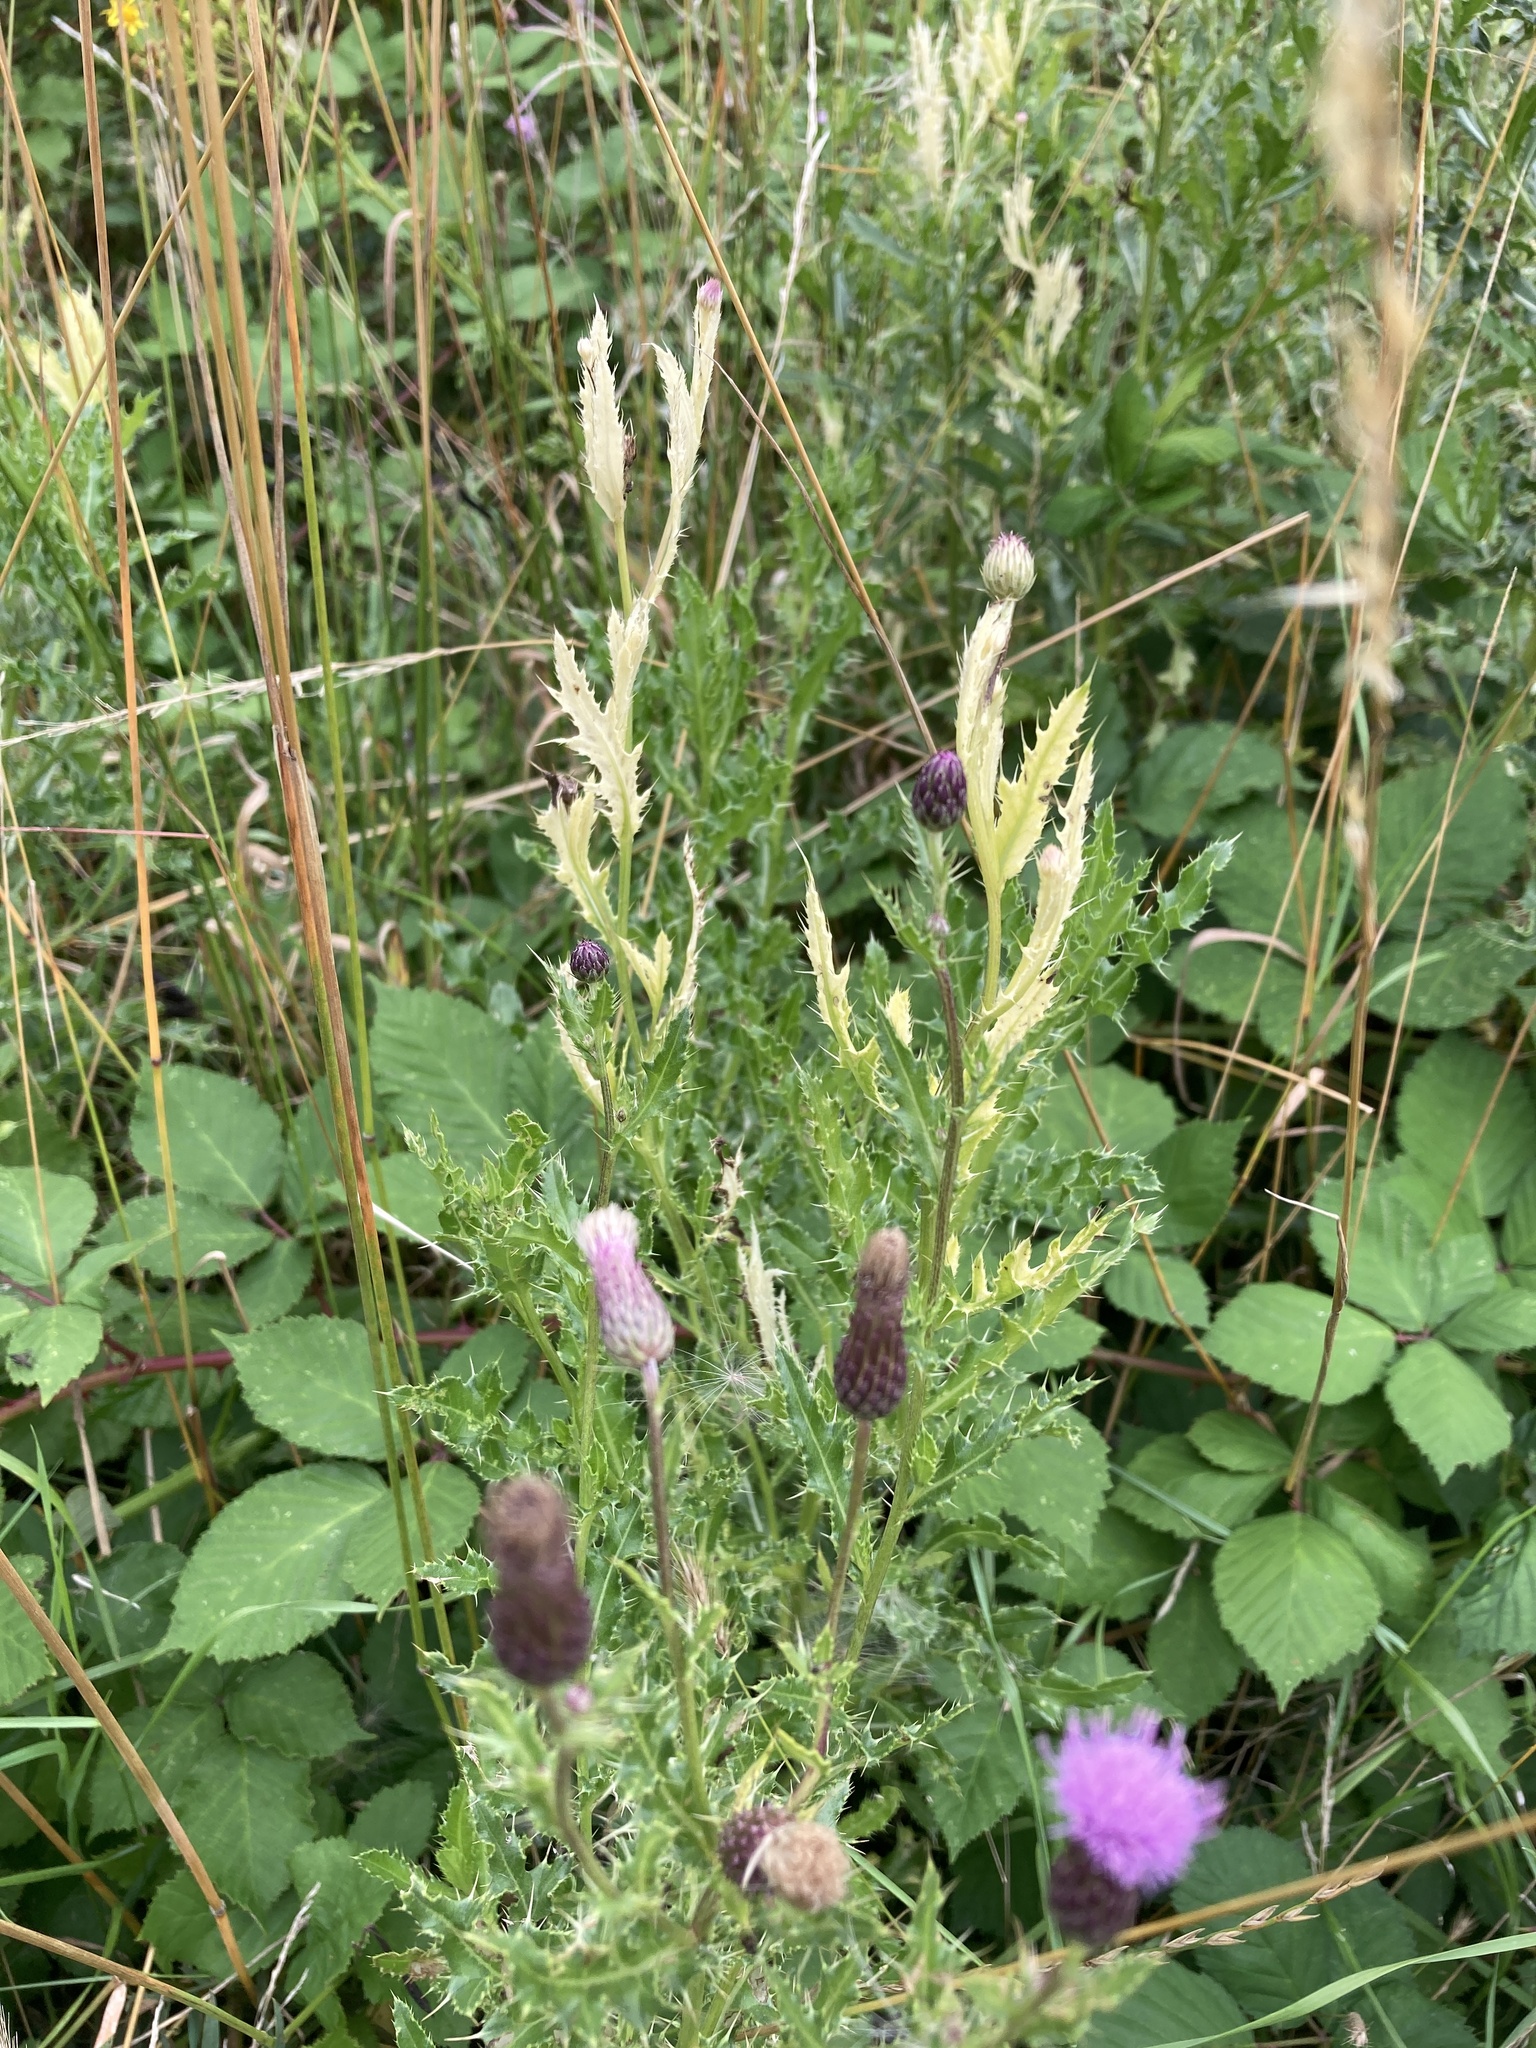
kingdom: Bacteria
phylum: Proteobacteria
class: Gammaproteobacteria
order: Pseudomonadales
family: Pseudomonadaceae
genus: Pseudomonas
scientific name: Pseudomonas syringae
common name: Bacterial speck
